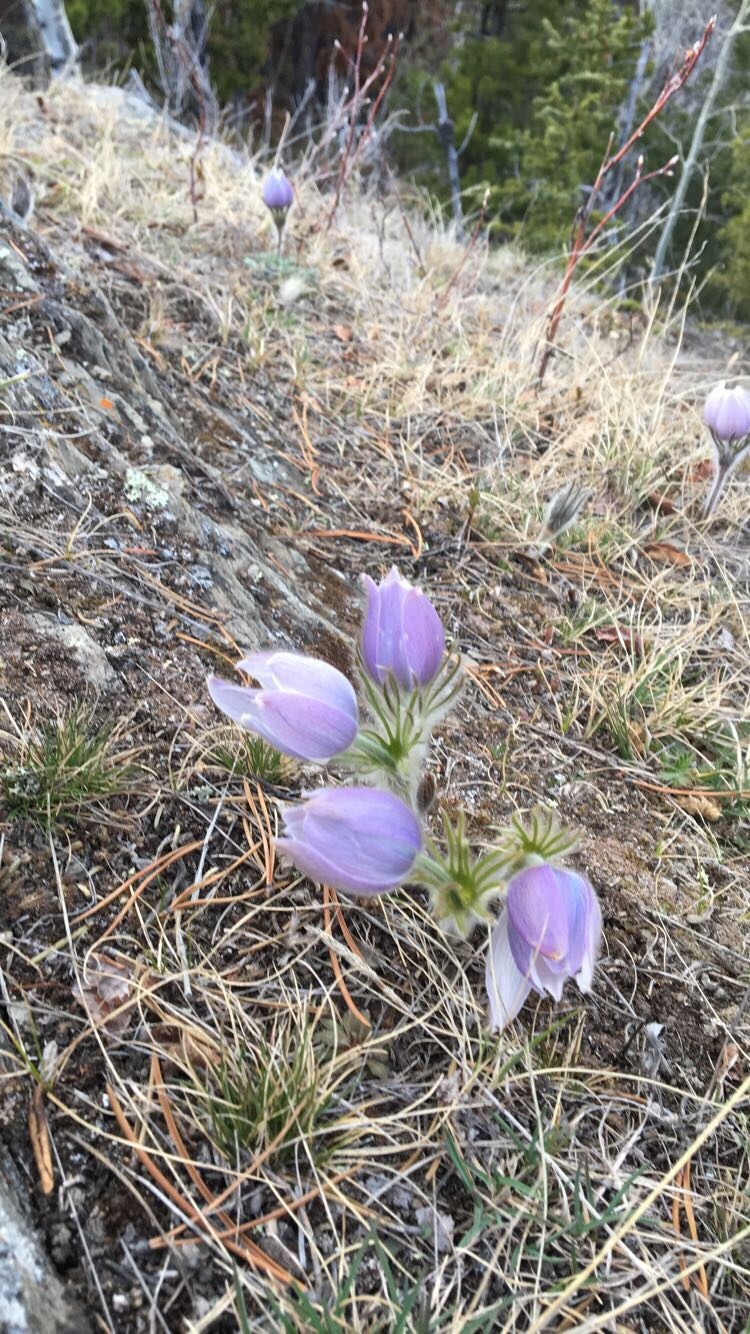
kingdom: Plantae
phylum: Tracheophyta
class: Magnoliopsida
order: Ranunculales
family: Ranunculaceae
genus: Pulsatilla
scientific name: Pulsatilla nuttalliana
